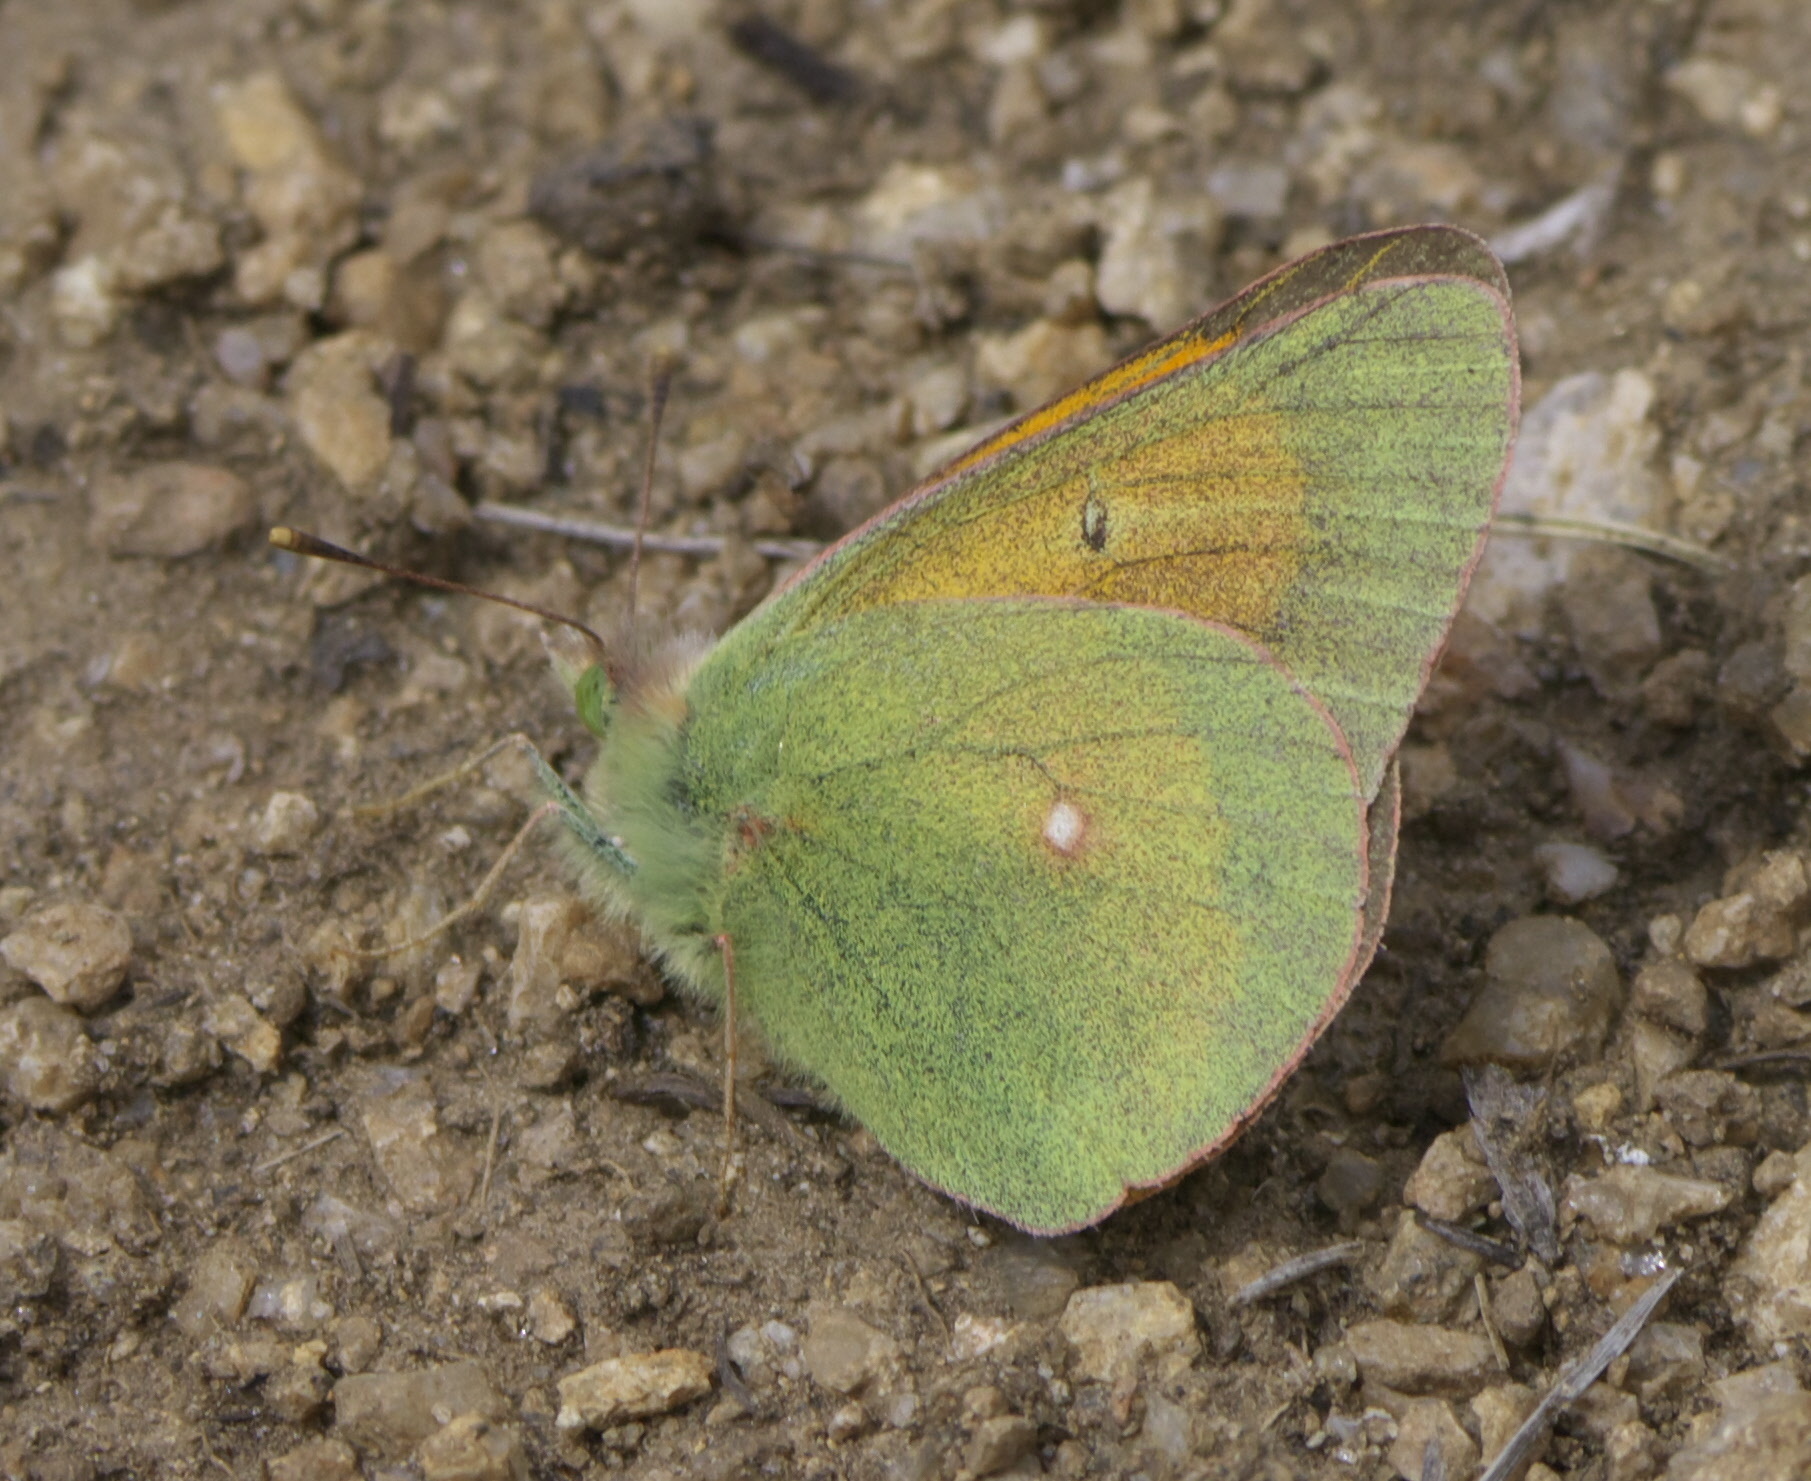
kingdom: Animalia
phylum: Arthropoda
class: Insecta
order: Lepidoptera
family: Pieridae
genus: Colias
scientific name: Colias meadii
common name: Mead's sulphur
